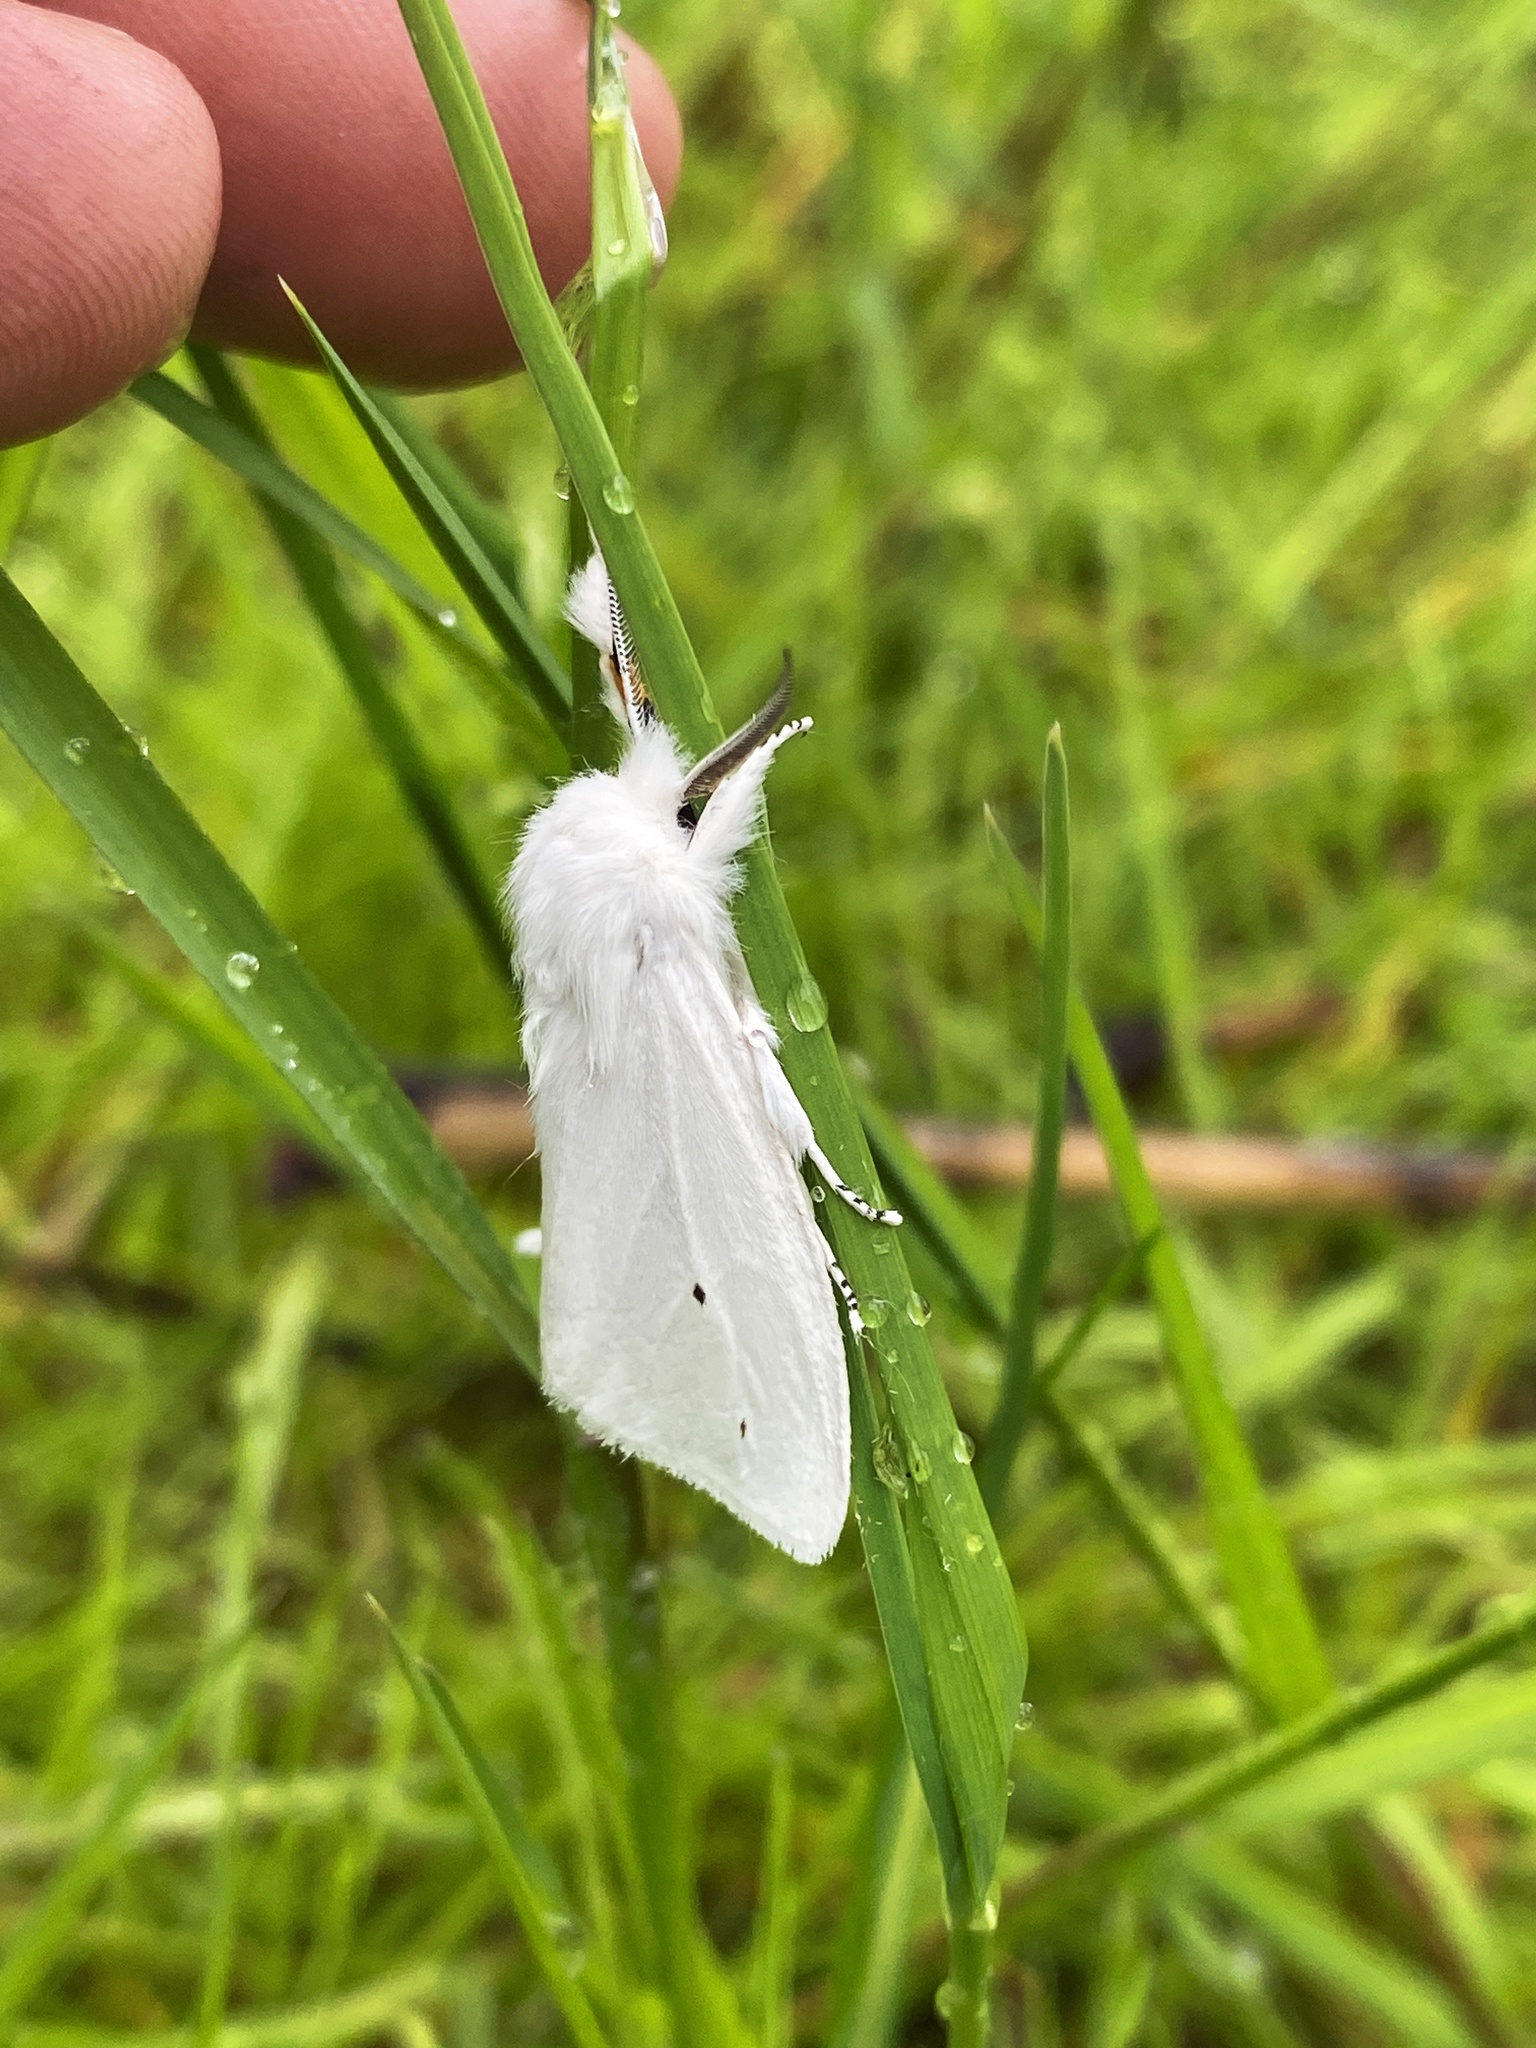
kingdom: Animalia
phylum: Arthropoda
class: Insecta
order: Lepidoptera
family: Erebidae
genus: Spilosoma
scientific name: Spilosoma virginica
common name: Virginia tiger moth
